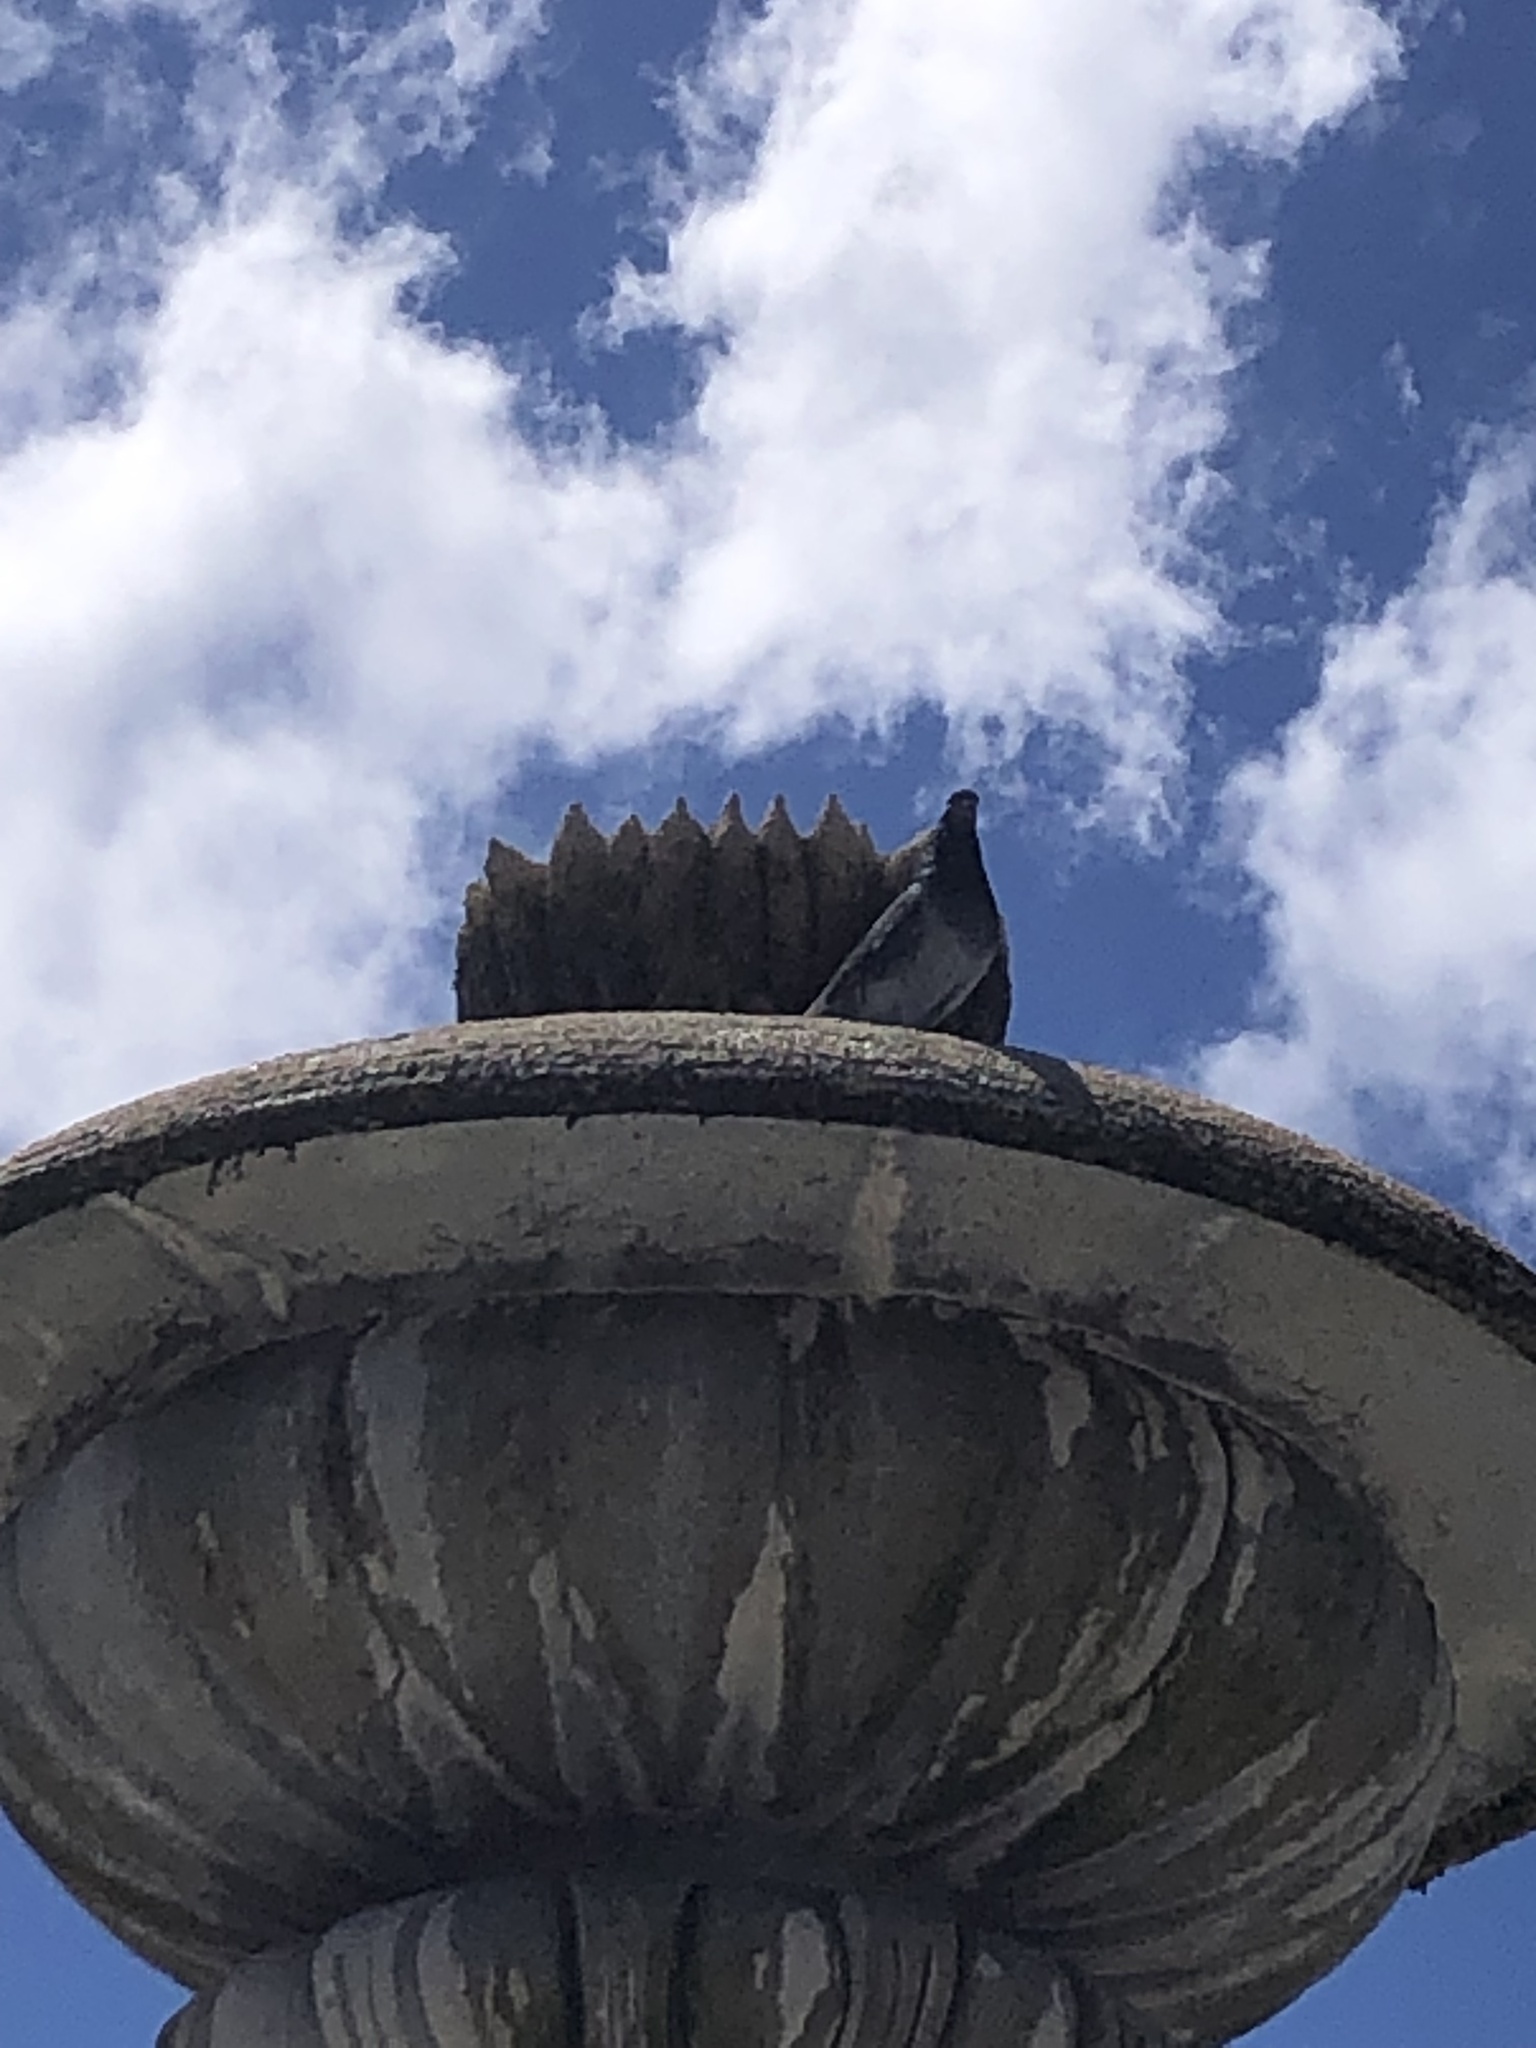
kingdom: Animalia
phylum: Chordata
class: Aves
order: Columbiformes
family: Columbidae
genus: Columba
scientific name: Columba livia
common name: Rock pigeon
